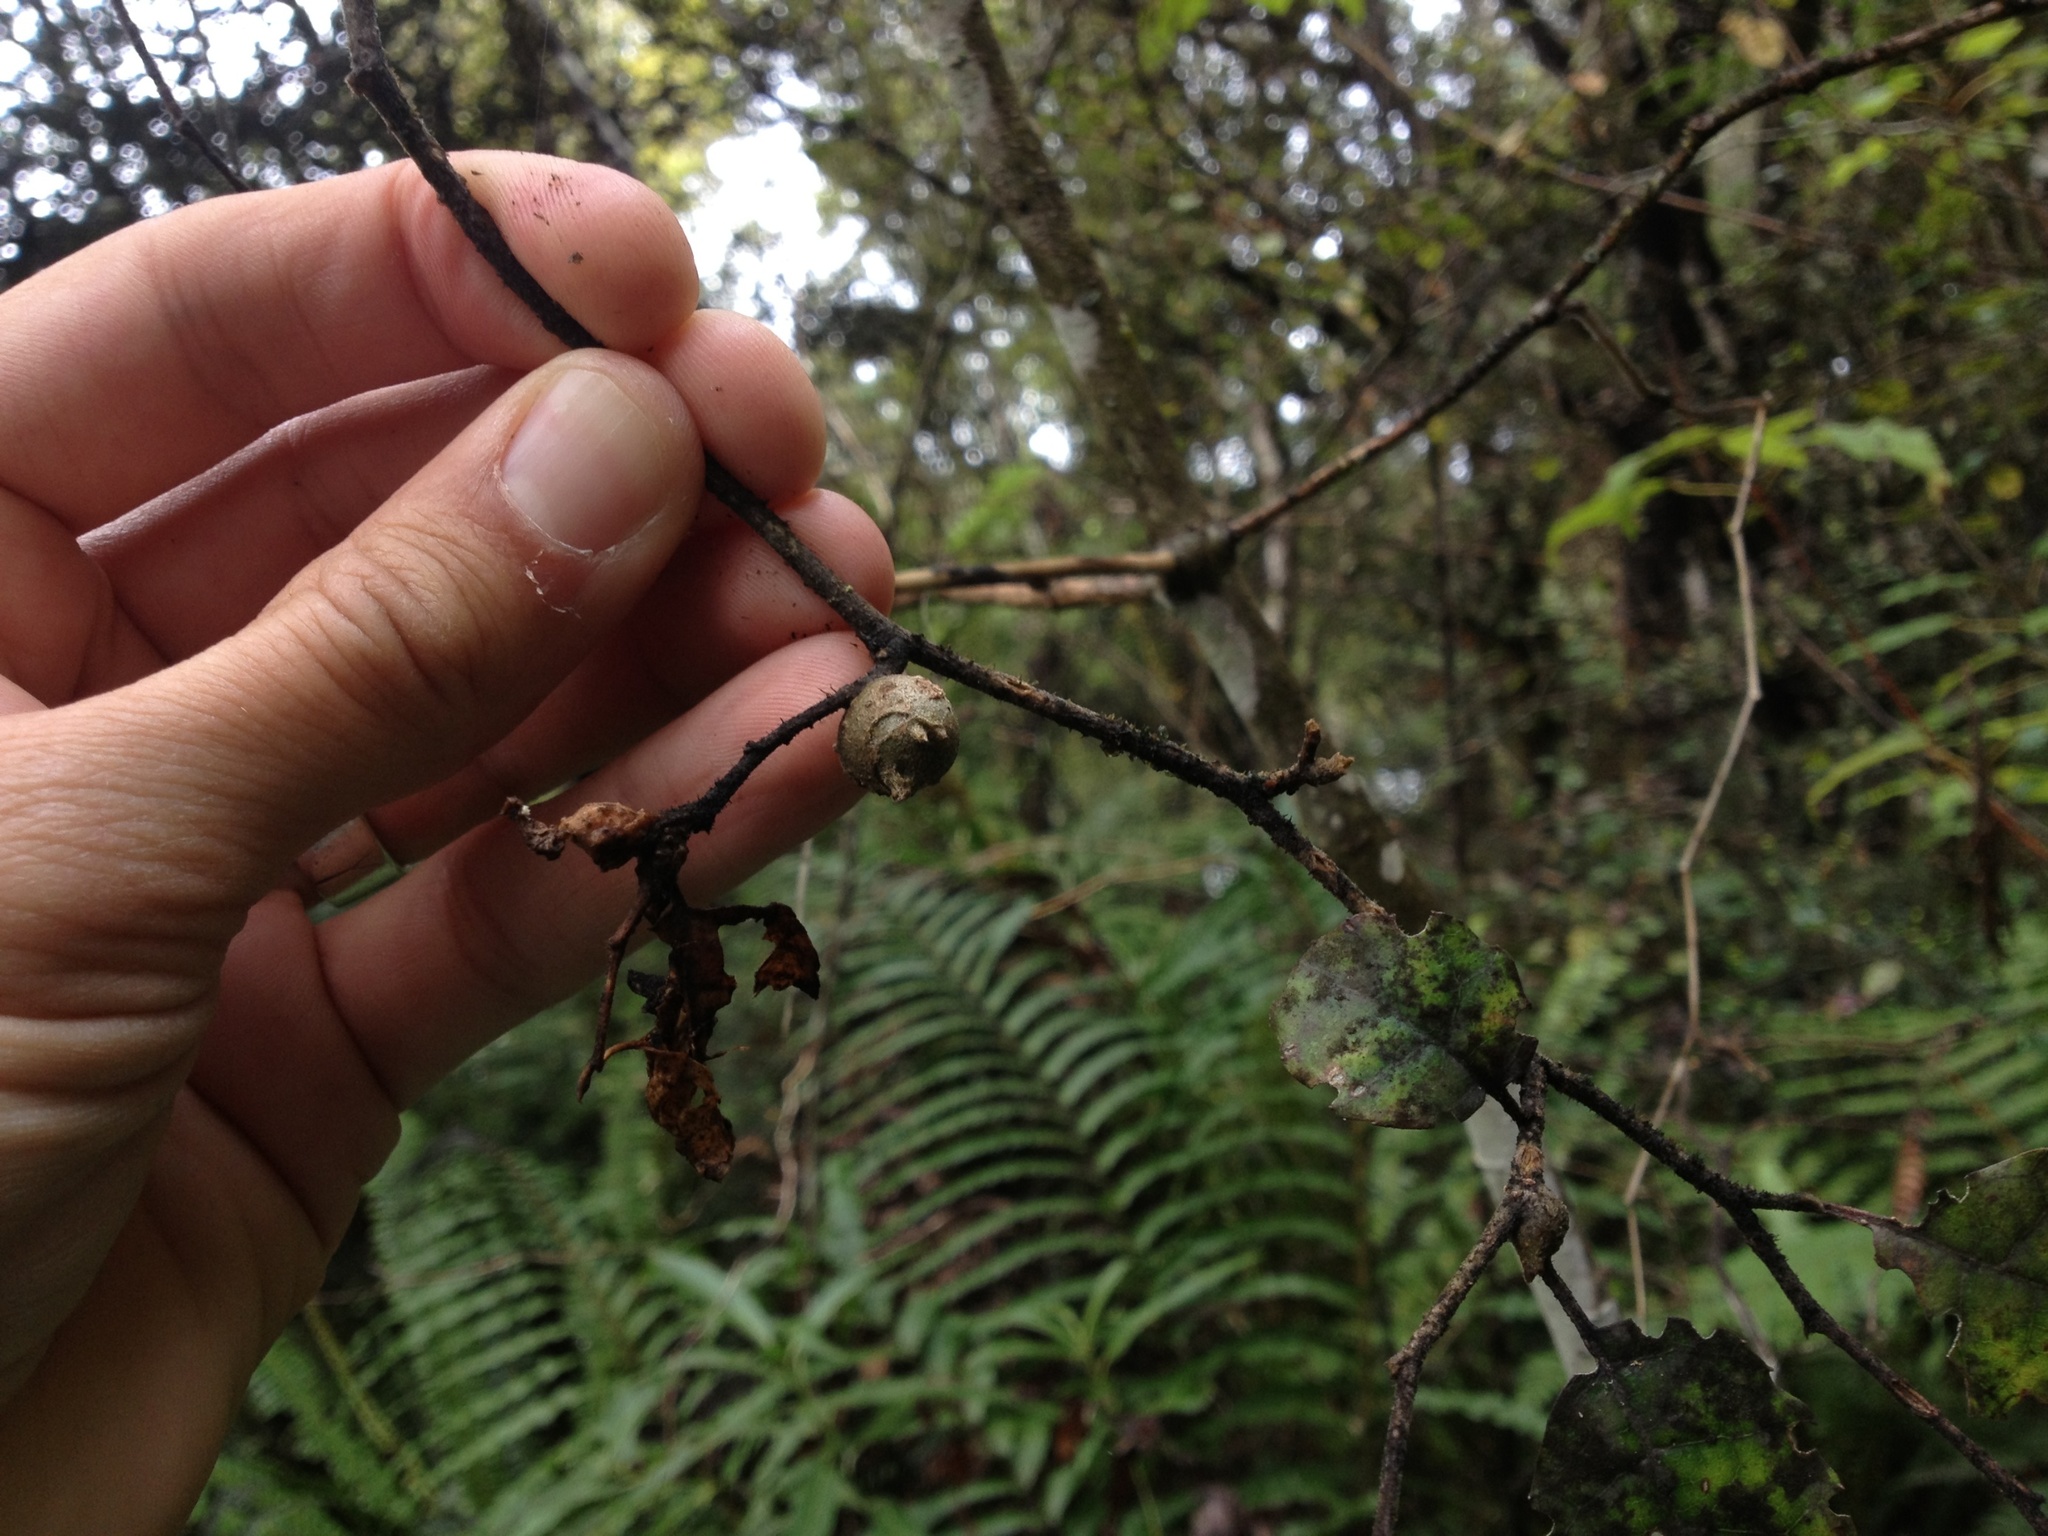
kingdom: Plantae
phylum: Tracheophyta
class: Magnoliopsida
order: Asterales
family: Rousseaceae
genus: Carpodetus
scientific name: Carpodetus serratus
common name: White mapau
